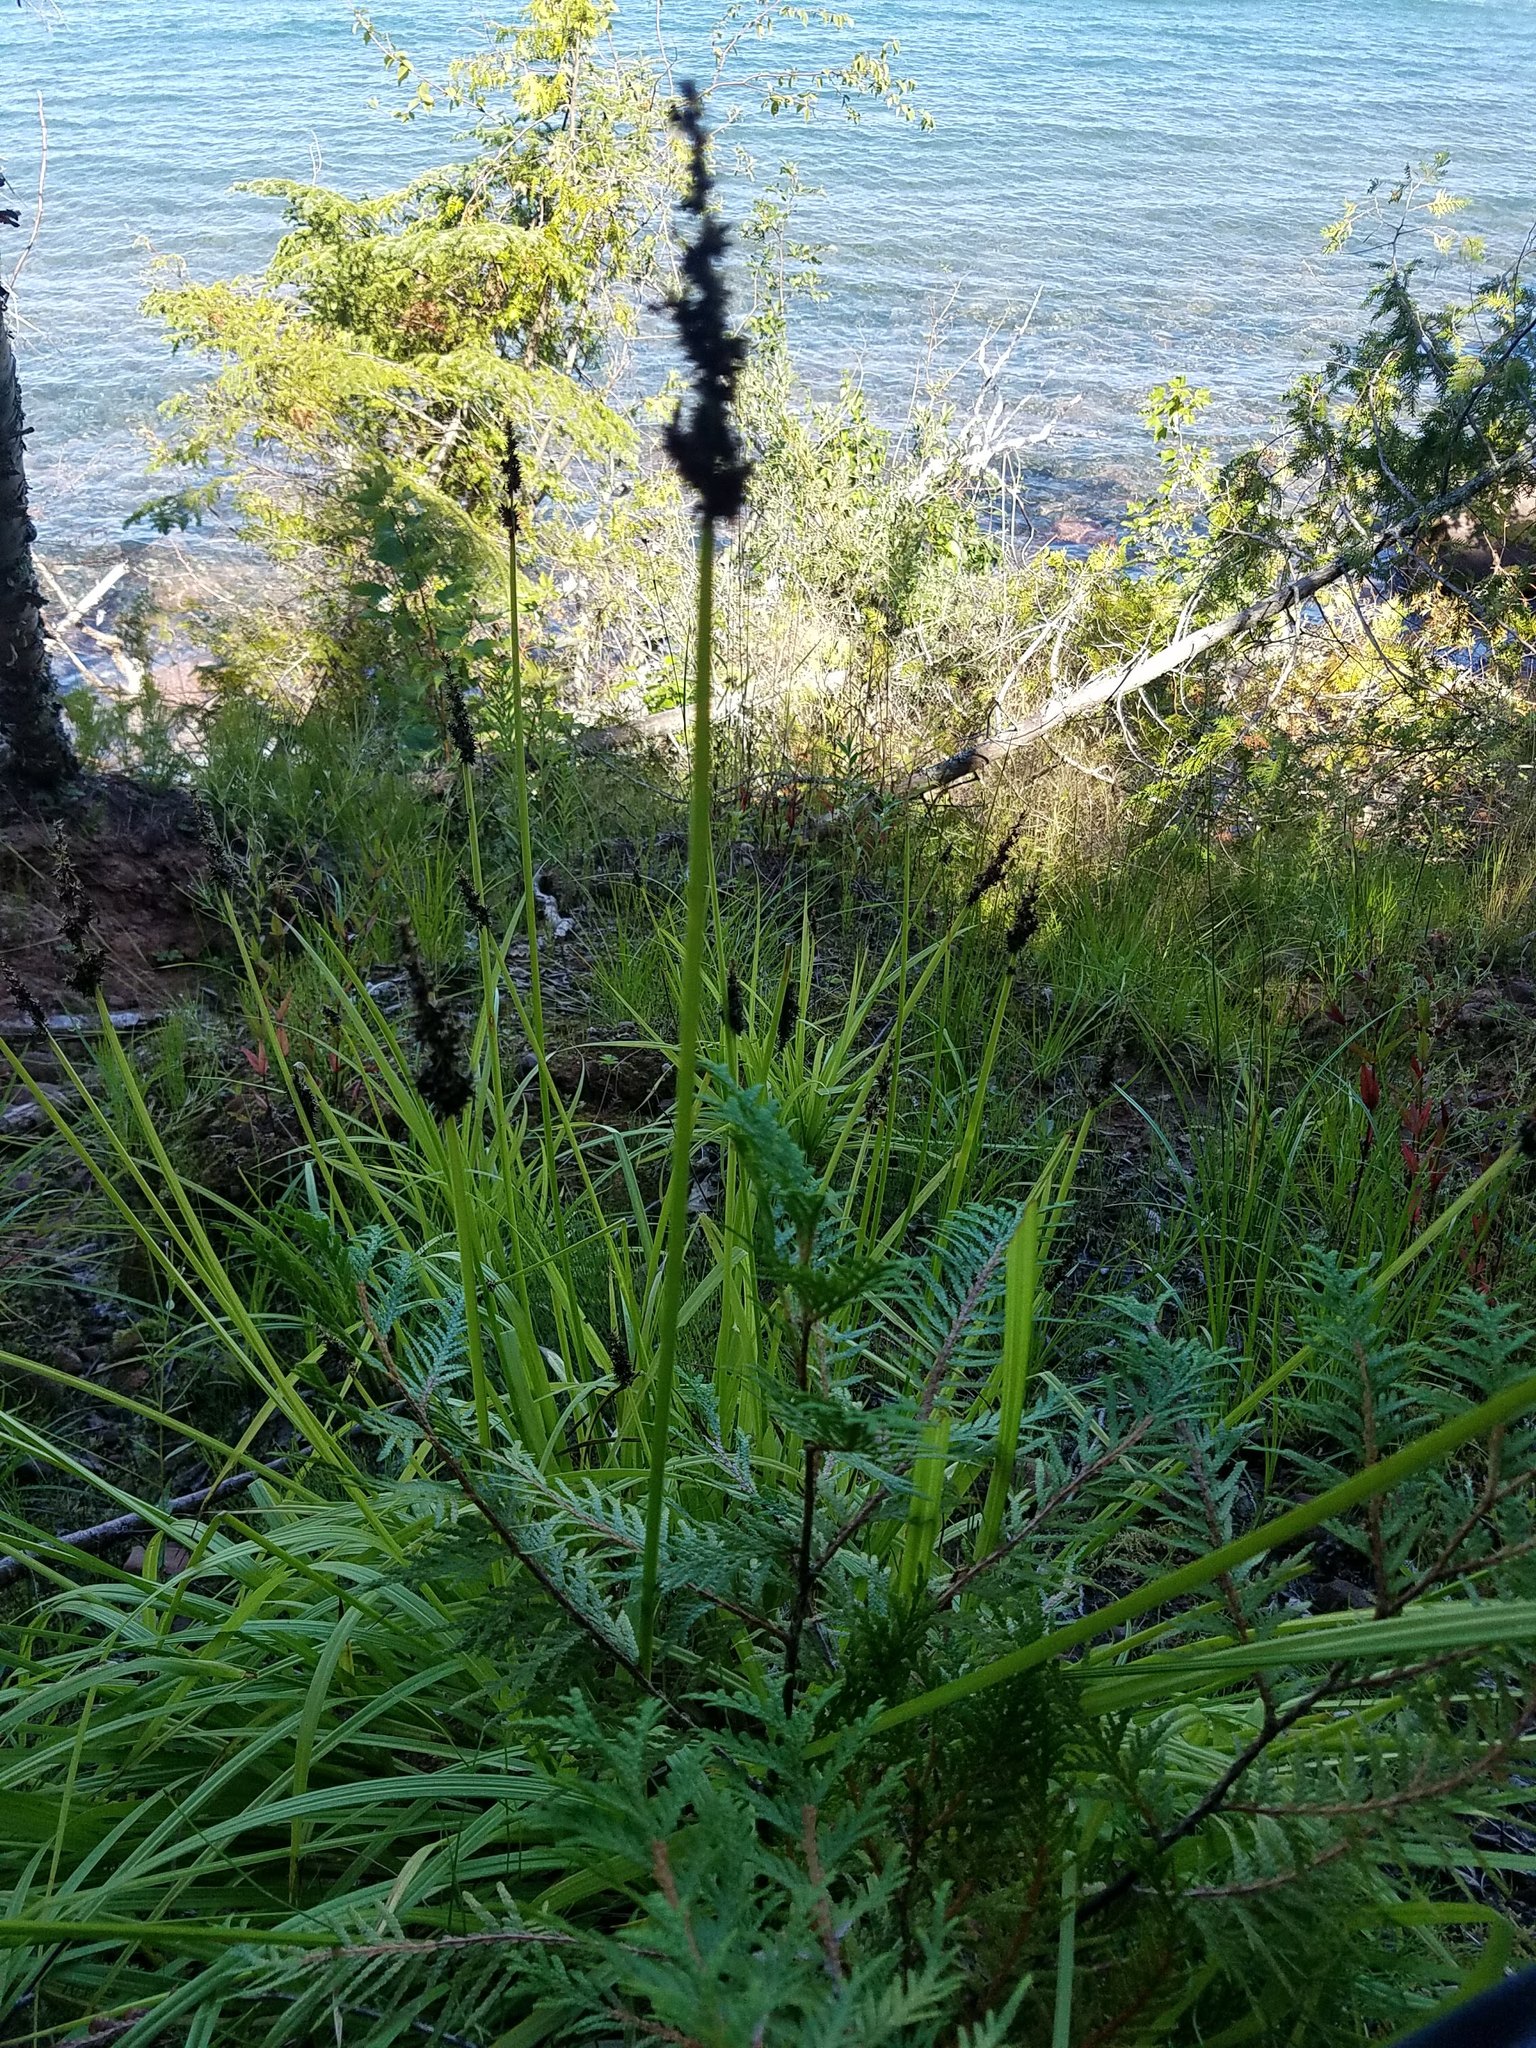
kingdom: Plantae
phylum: Tracheophyta
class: Liliopsida
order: Poales
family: Cyperaceae
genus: Carex
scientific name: Carex stipata
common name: Awl-fruited sedge
